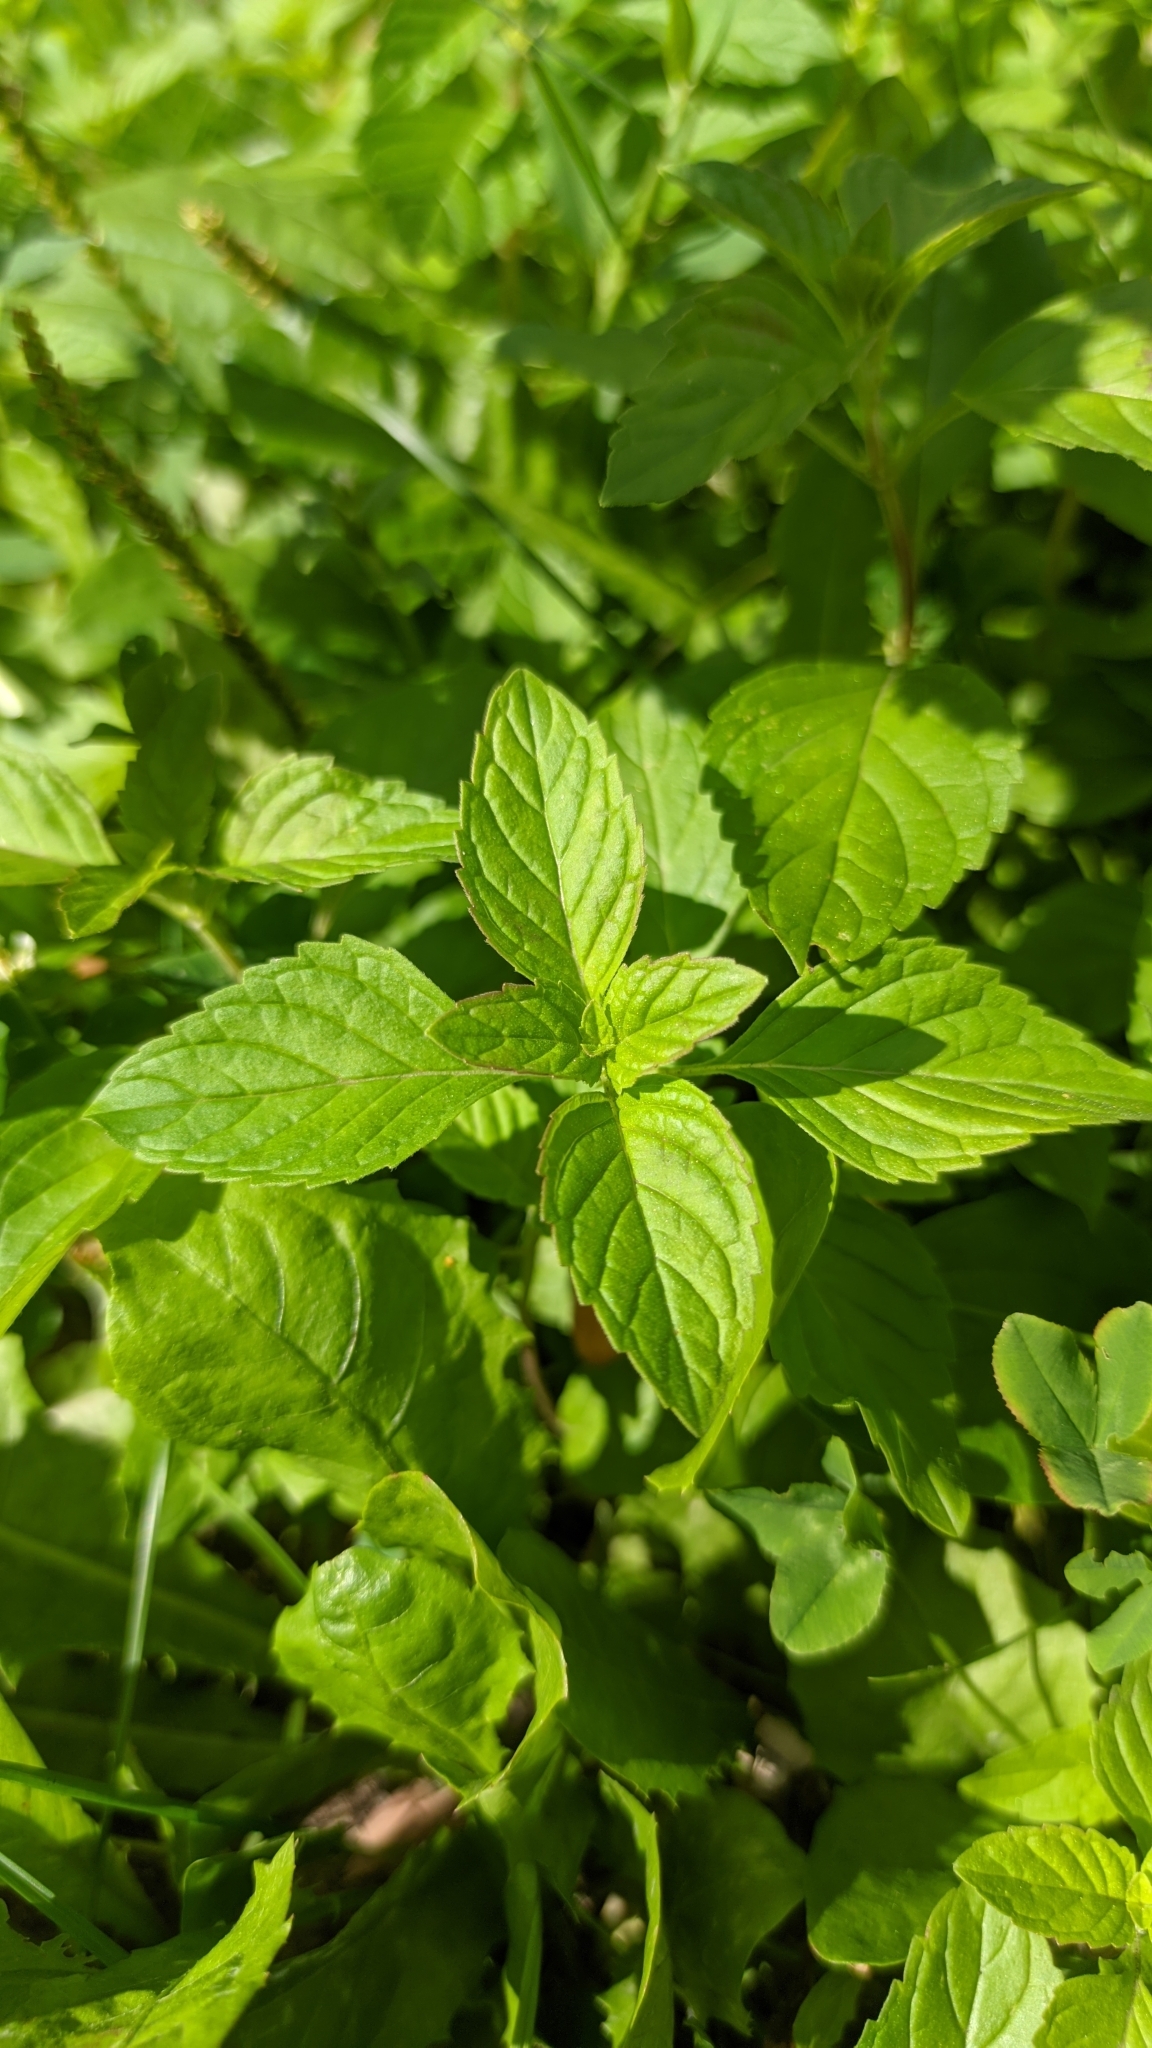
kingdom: Plantae
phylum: Tracheophyta
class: Magnoliopsida
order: Lamiales
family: Lamiaceae
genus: Mentha
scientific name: Mentha arvensis
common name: Corn mint
